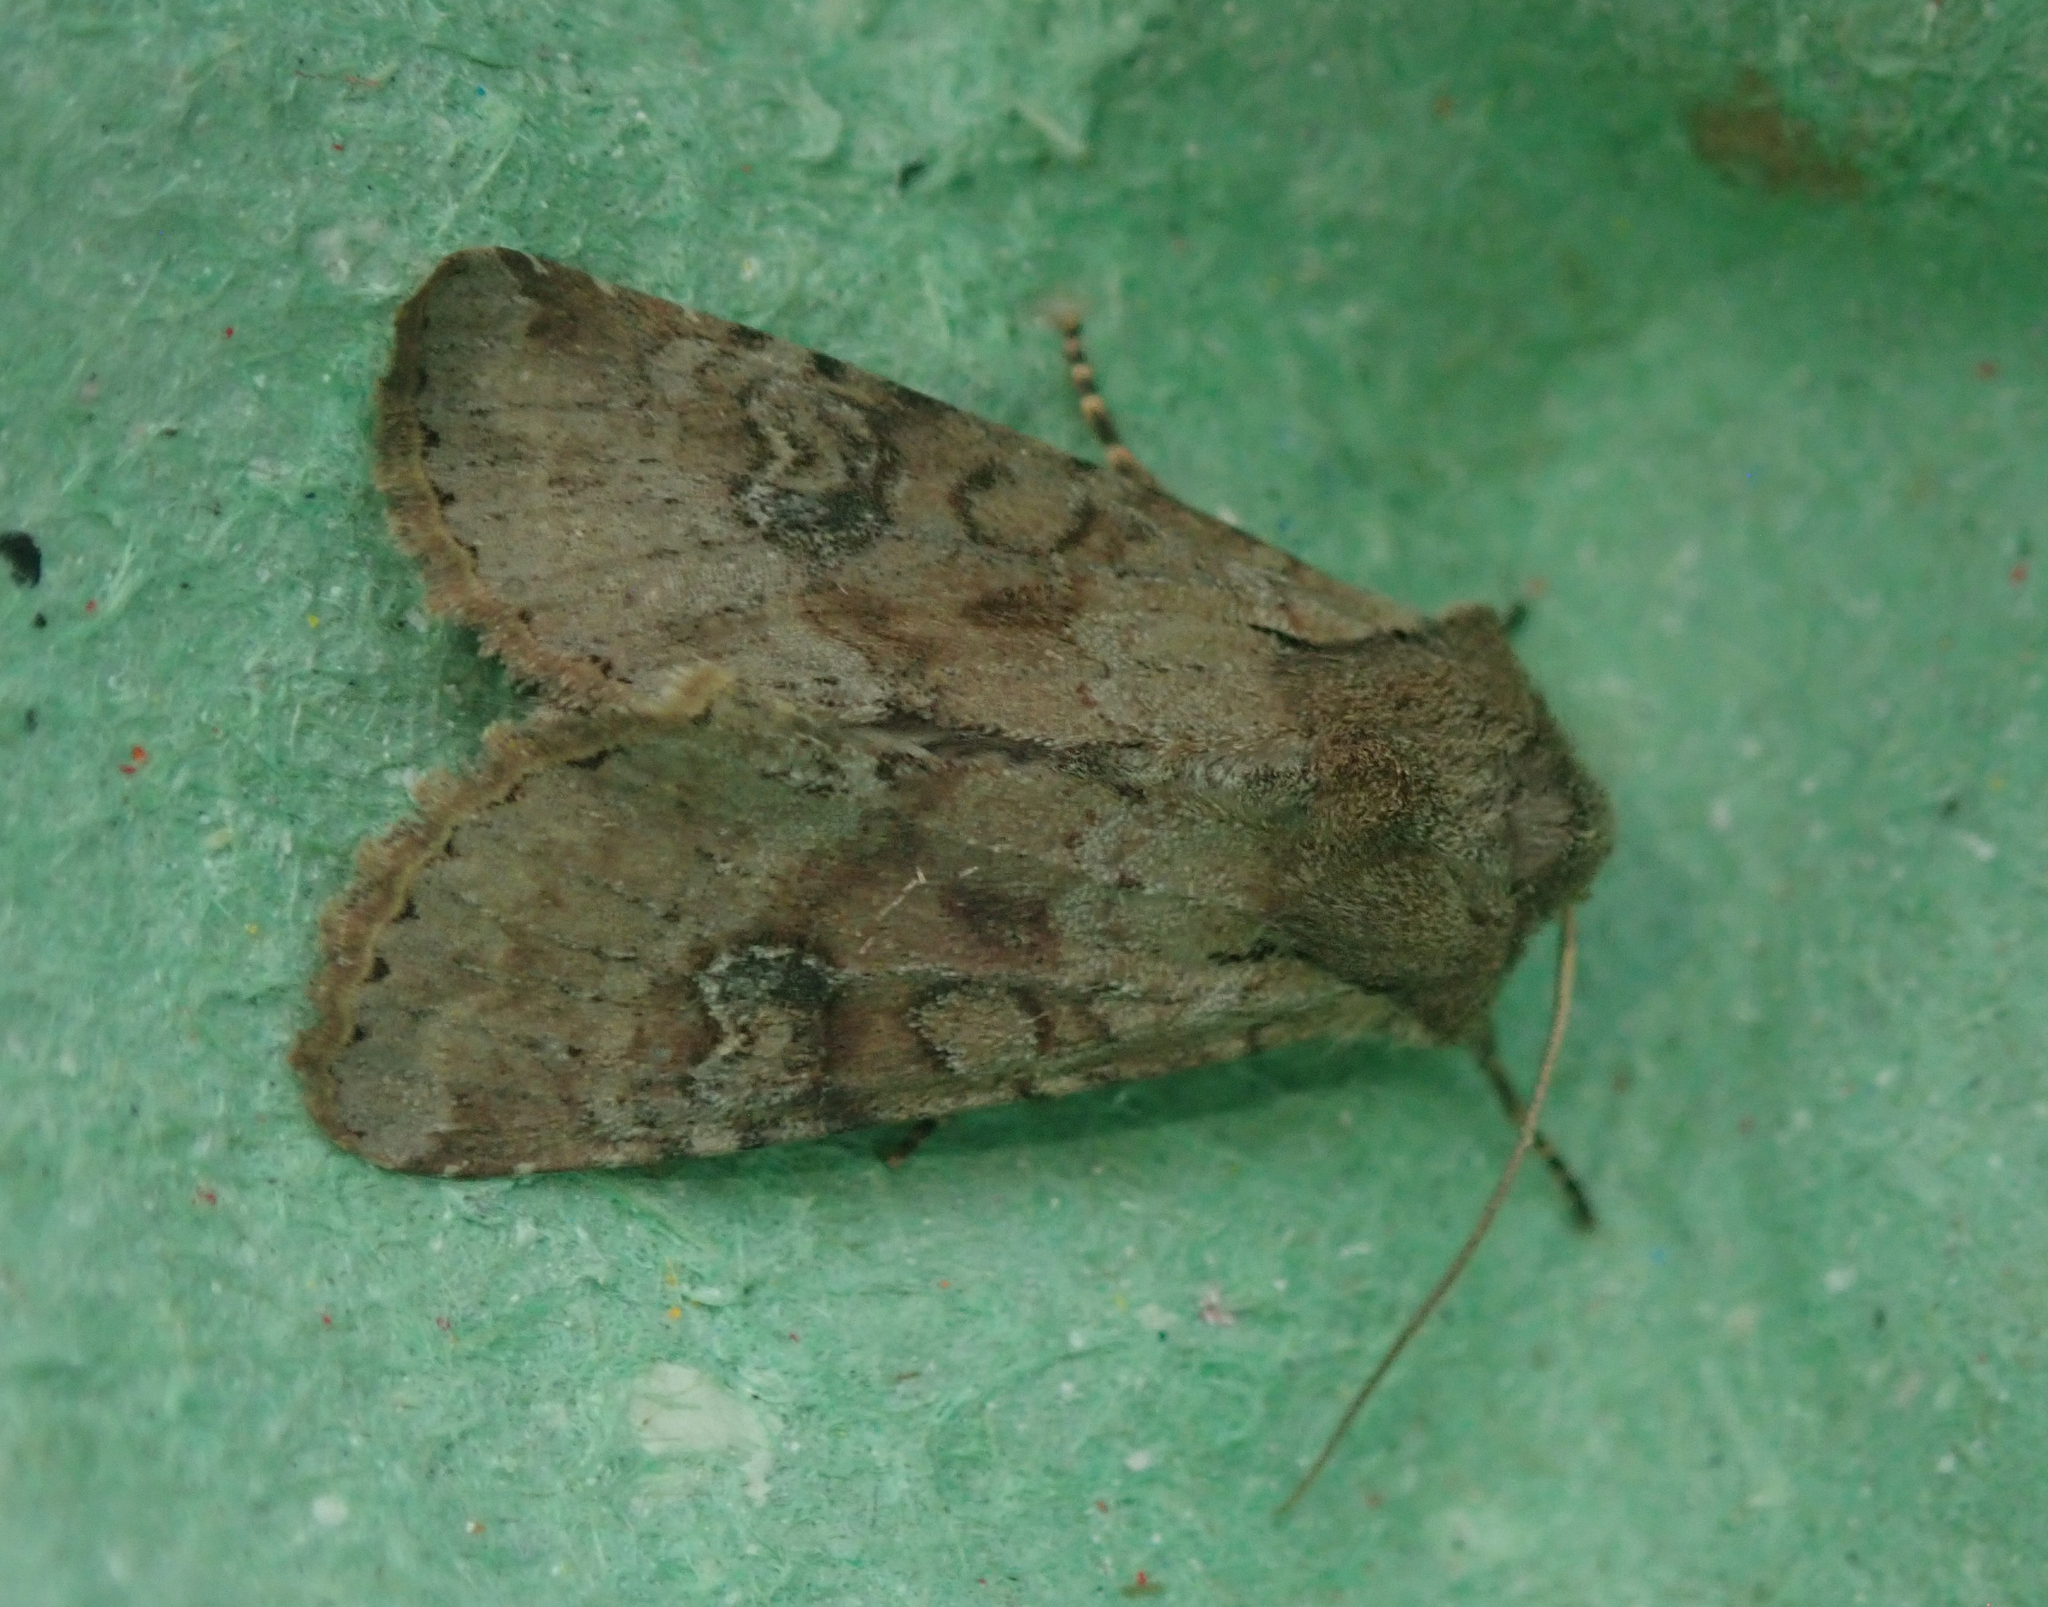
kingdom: Animalia
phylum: Arthropoda
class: Insecta
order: Lepidoptera
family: Noctuidae
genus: Apamea
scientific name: Apamea sordens
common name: Rustic shoulder-knot
